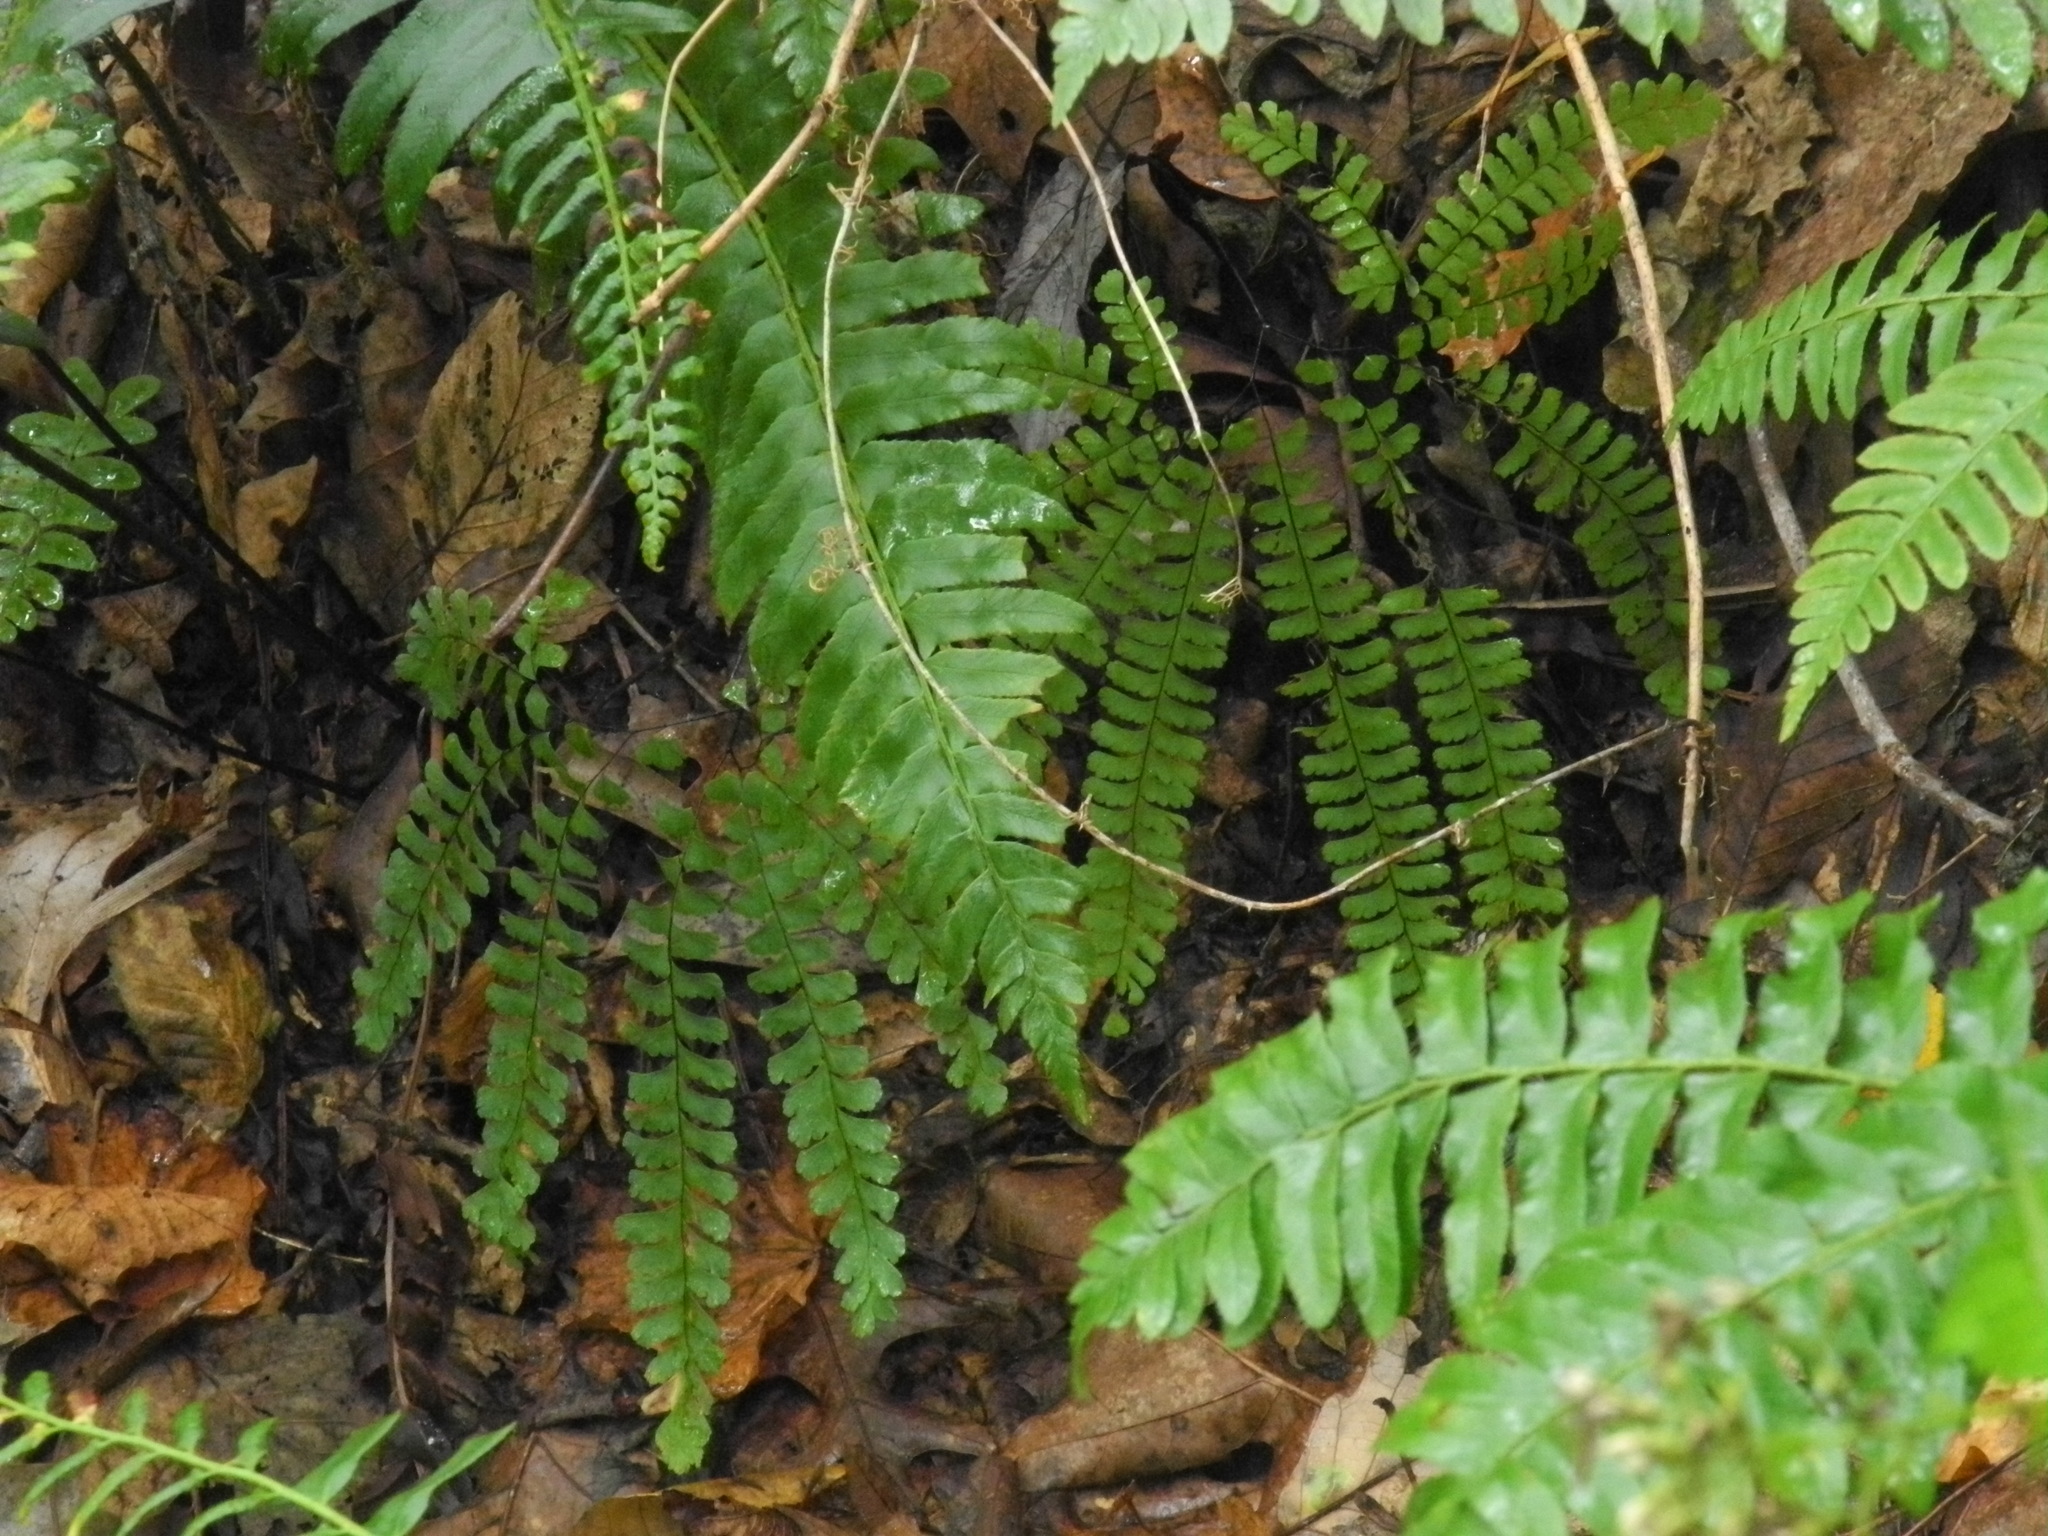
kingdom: Plantae
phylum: Tracheophyta
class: Polypodiopsida
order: Polypodiales
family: Pteridaceae
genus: Adiantum
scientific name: Adiantum pedatum
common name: Five-finger fern
